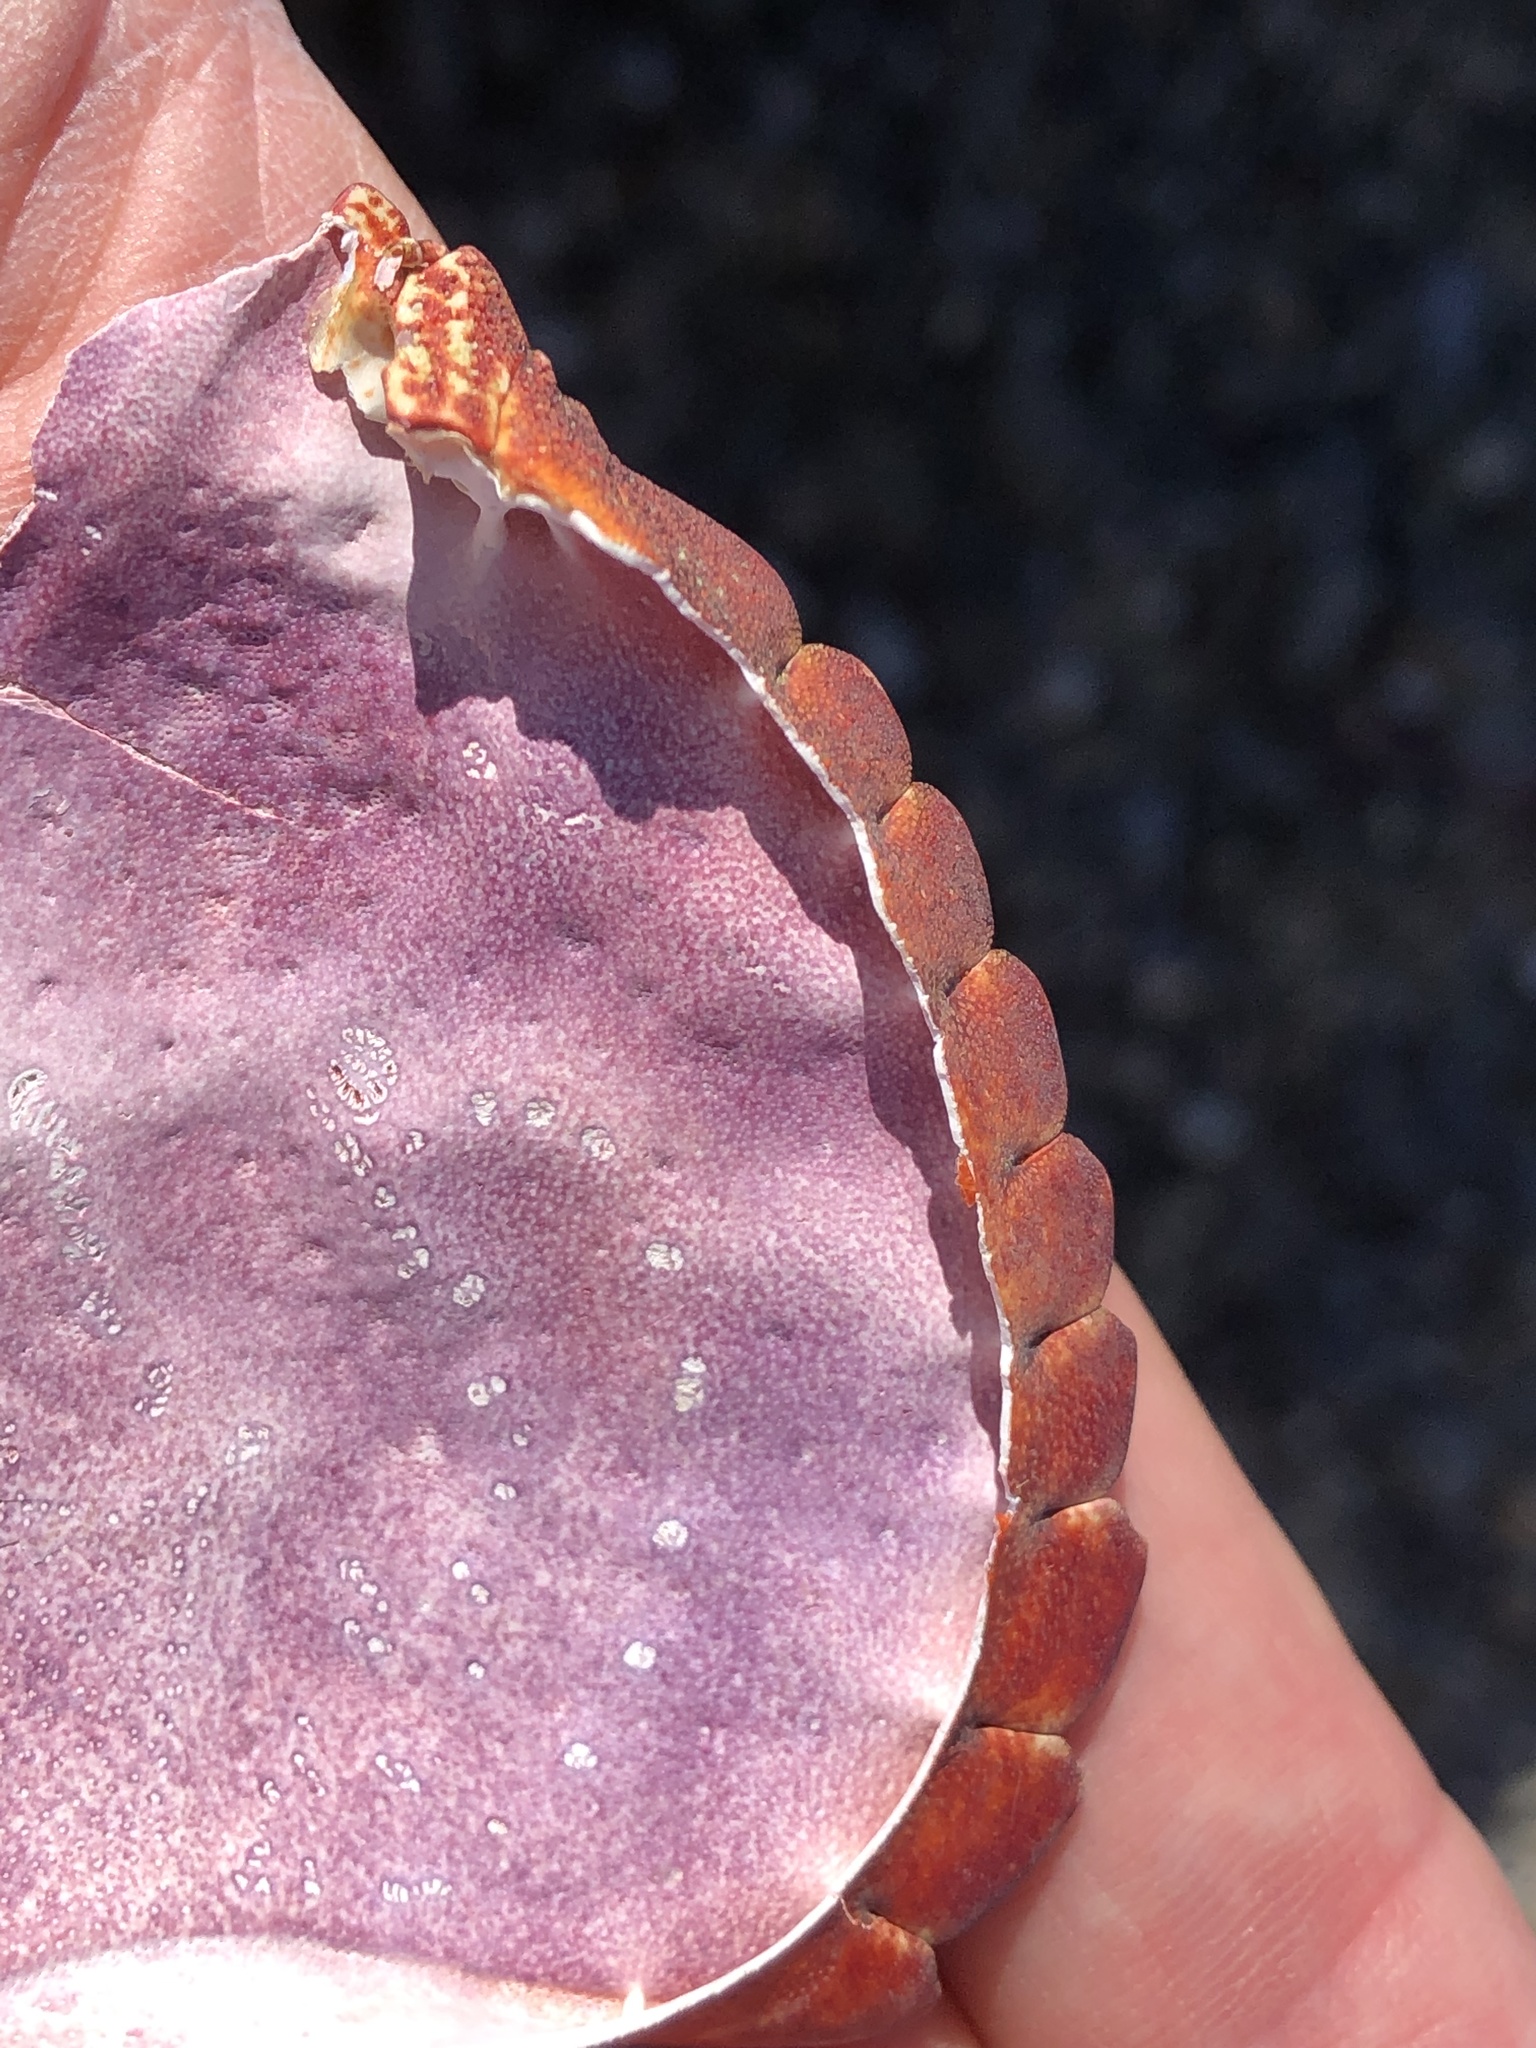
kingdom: Animalia
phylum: Arthropoda
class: Malacostraca
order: Decapoda
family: Cancridae
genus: Cancer
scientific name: Cancer productus
